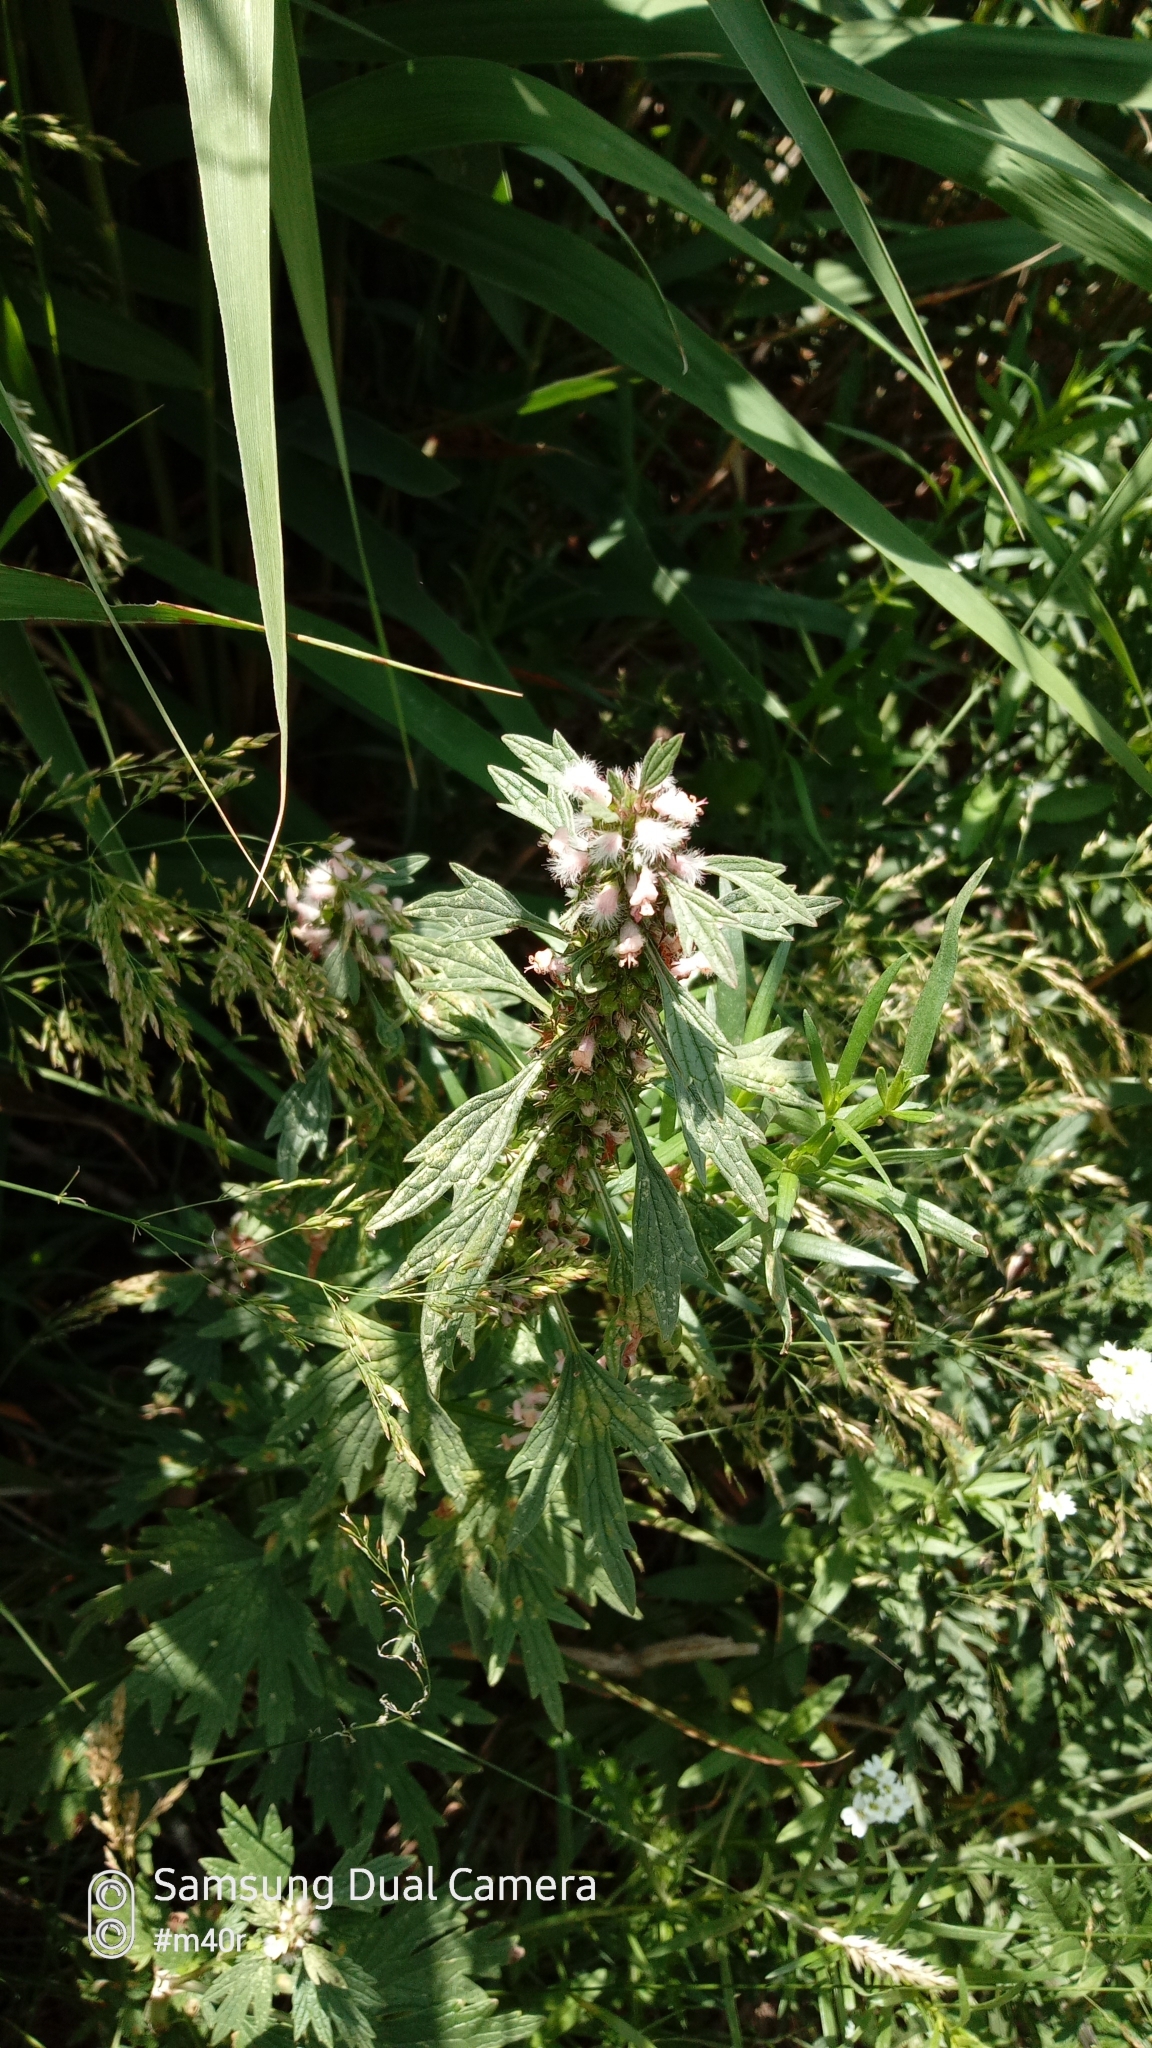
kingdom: Plantae
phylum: Tracheophyta
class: Magnoliopsida
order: Lamiales
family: Lamiaceae
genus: Leonurus
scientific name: Leonurus turkestanicus
